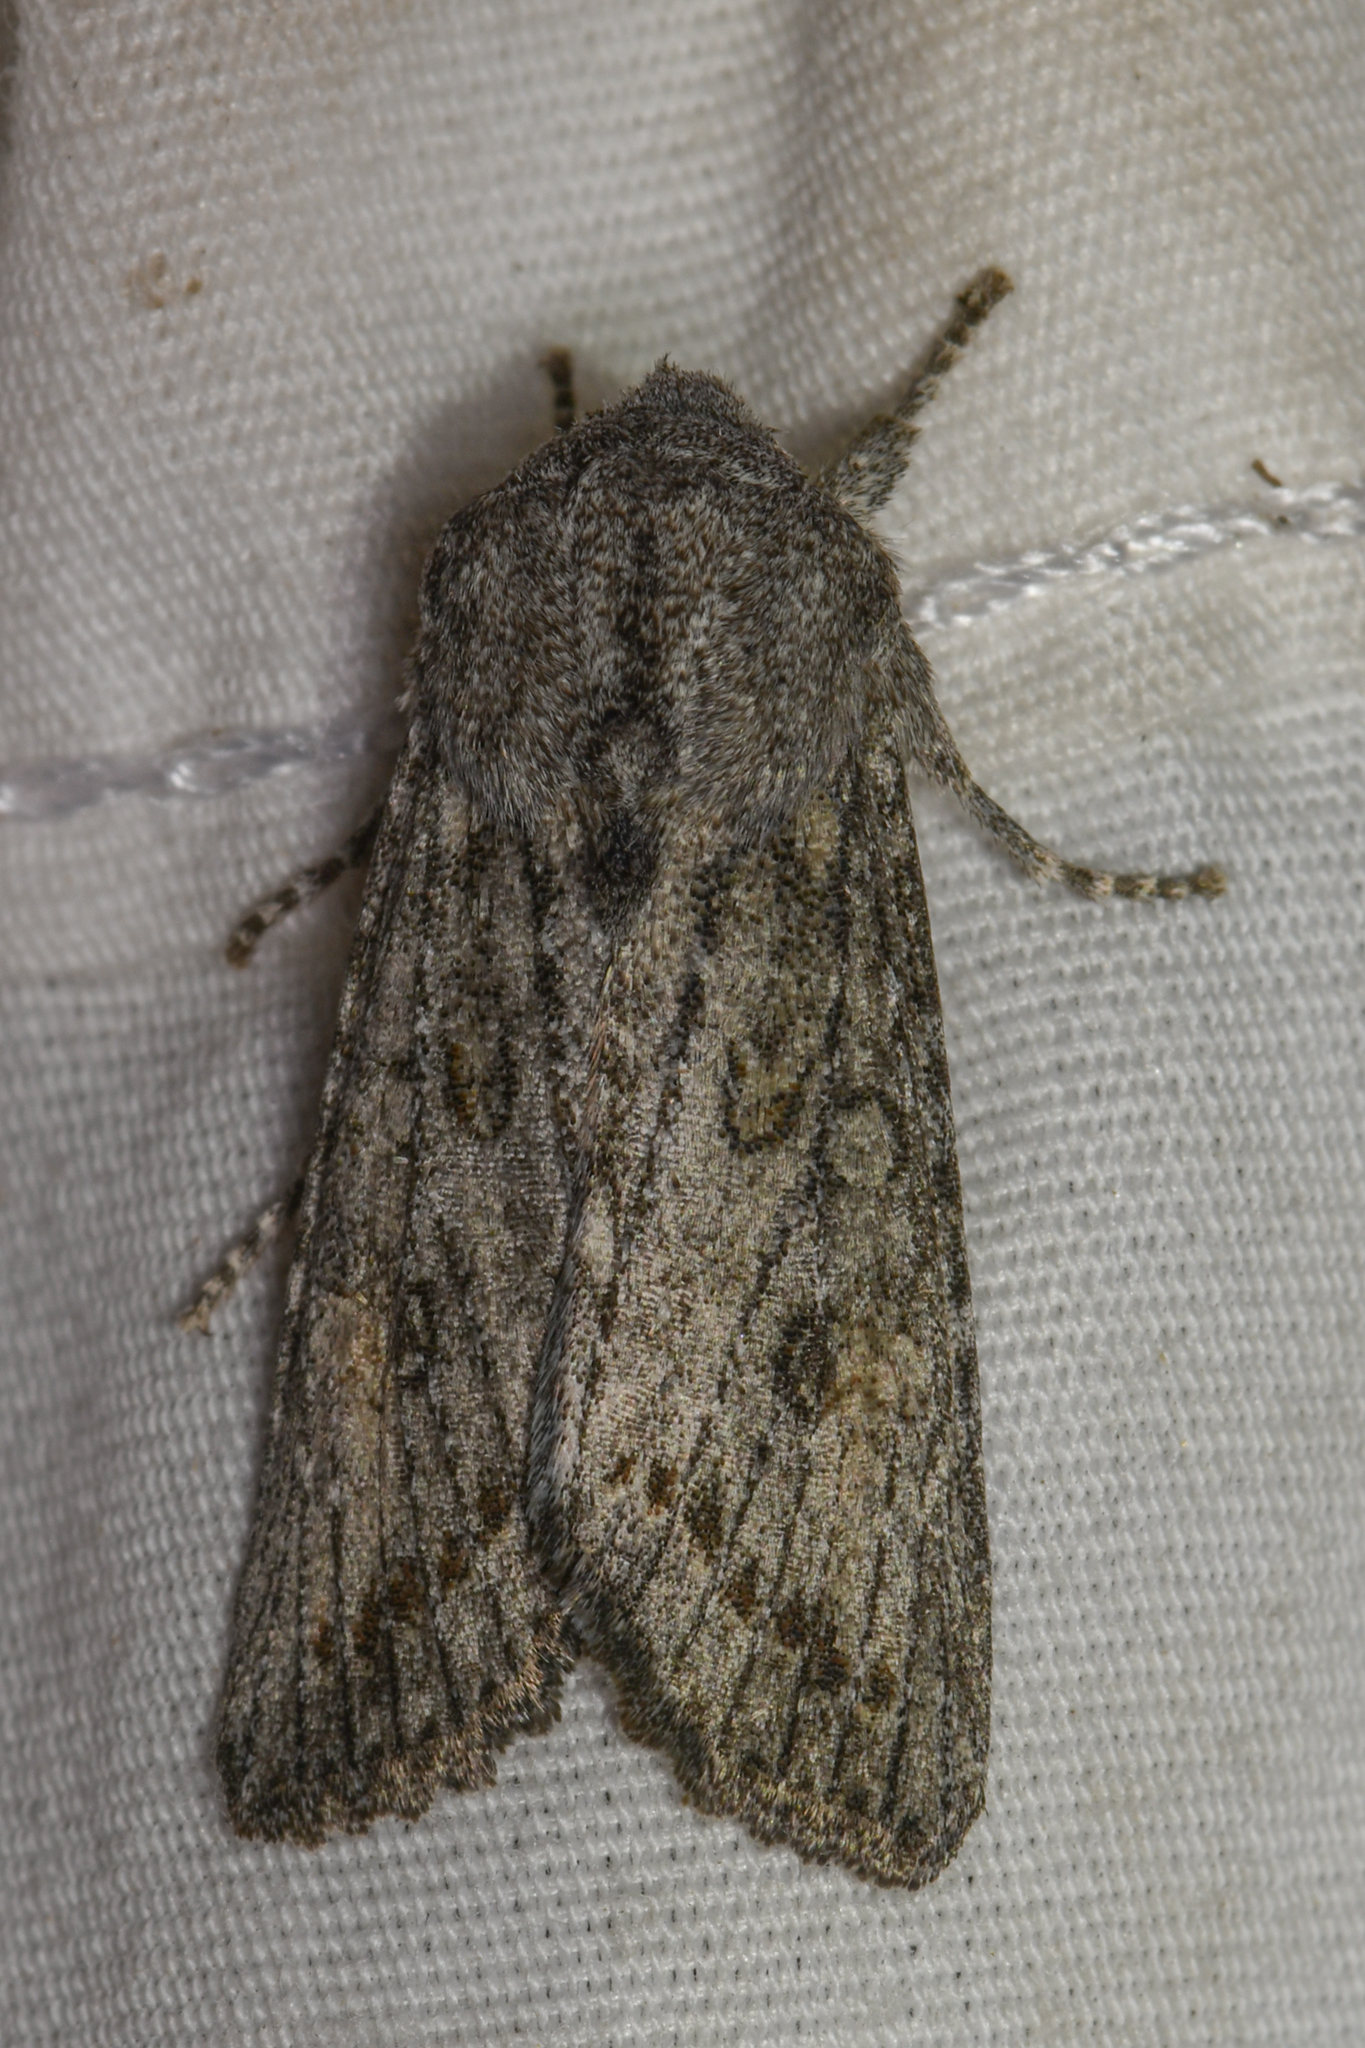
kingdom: Animalia
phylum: Arthropoda
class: Insecta
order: Lepidoptera
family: Noctuidae
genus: Egira
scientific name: Egira curialis
